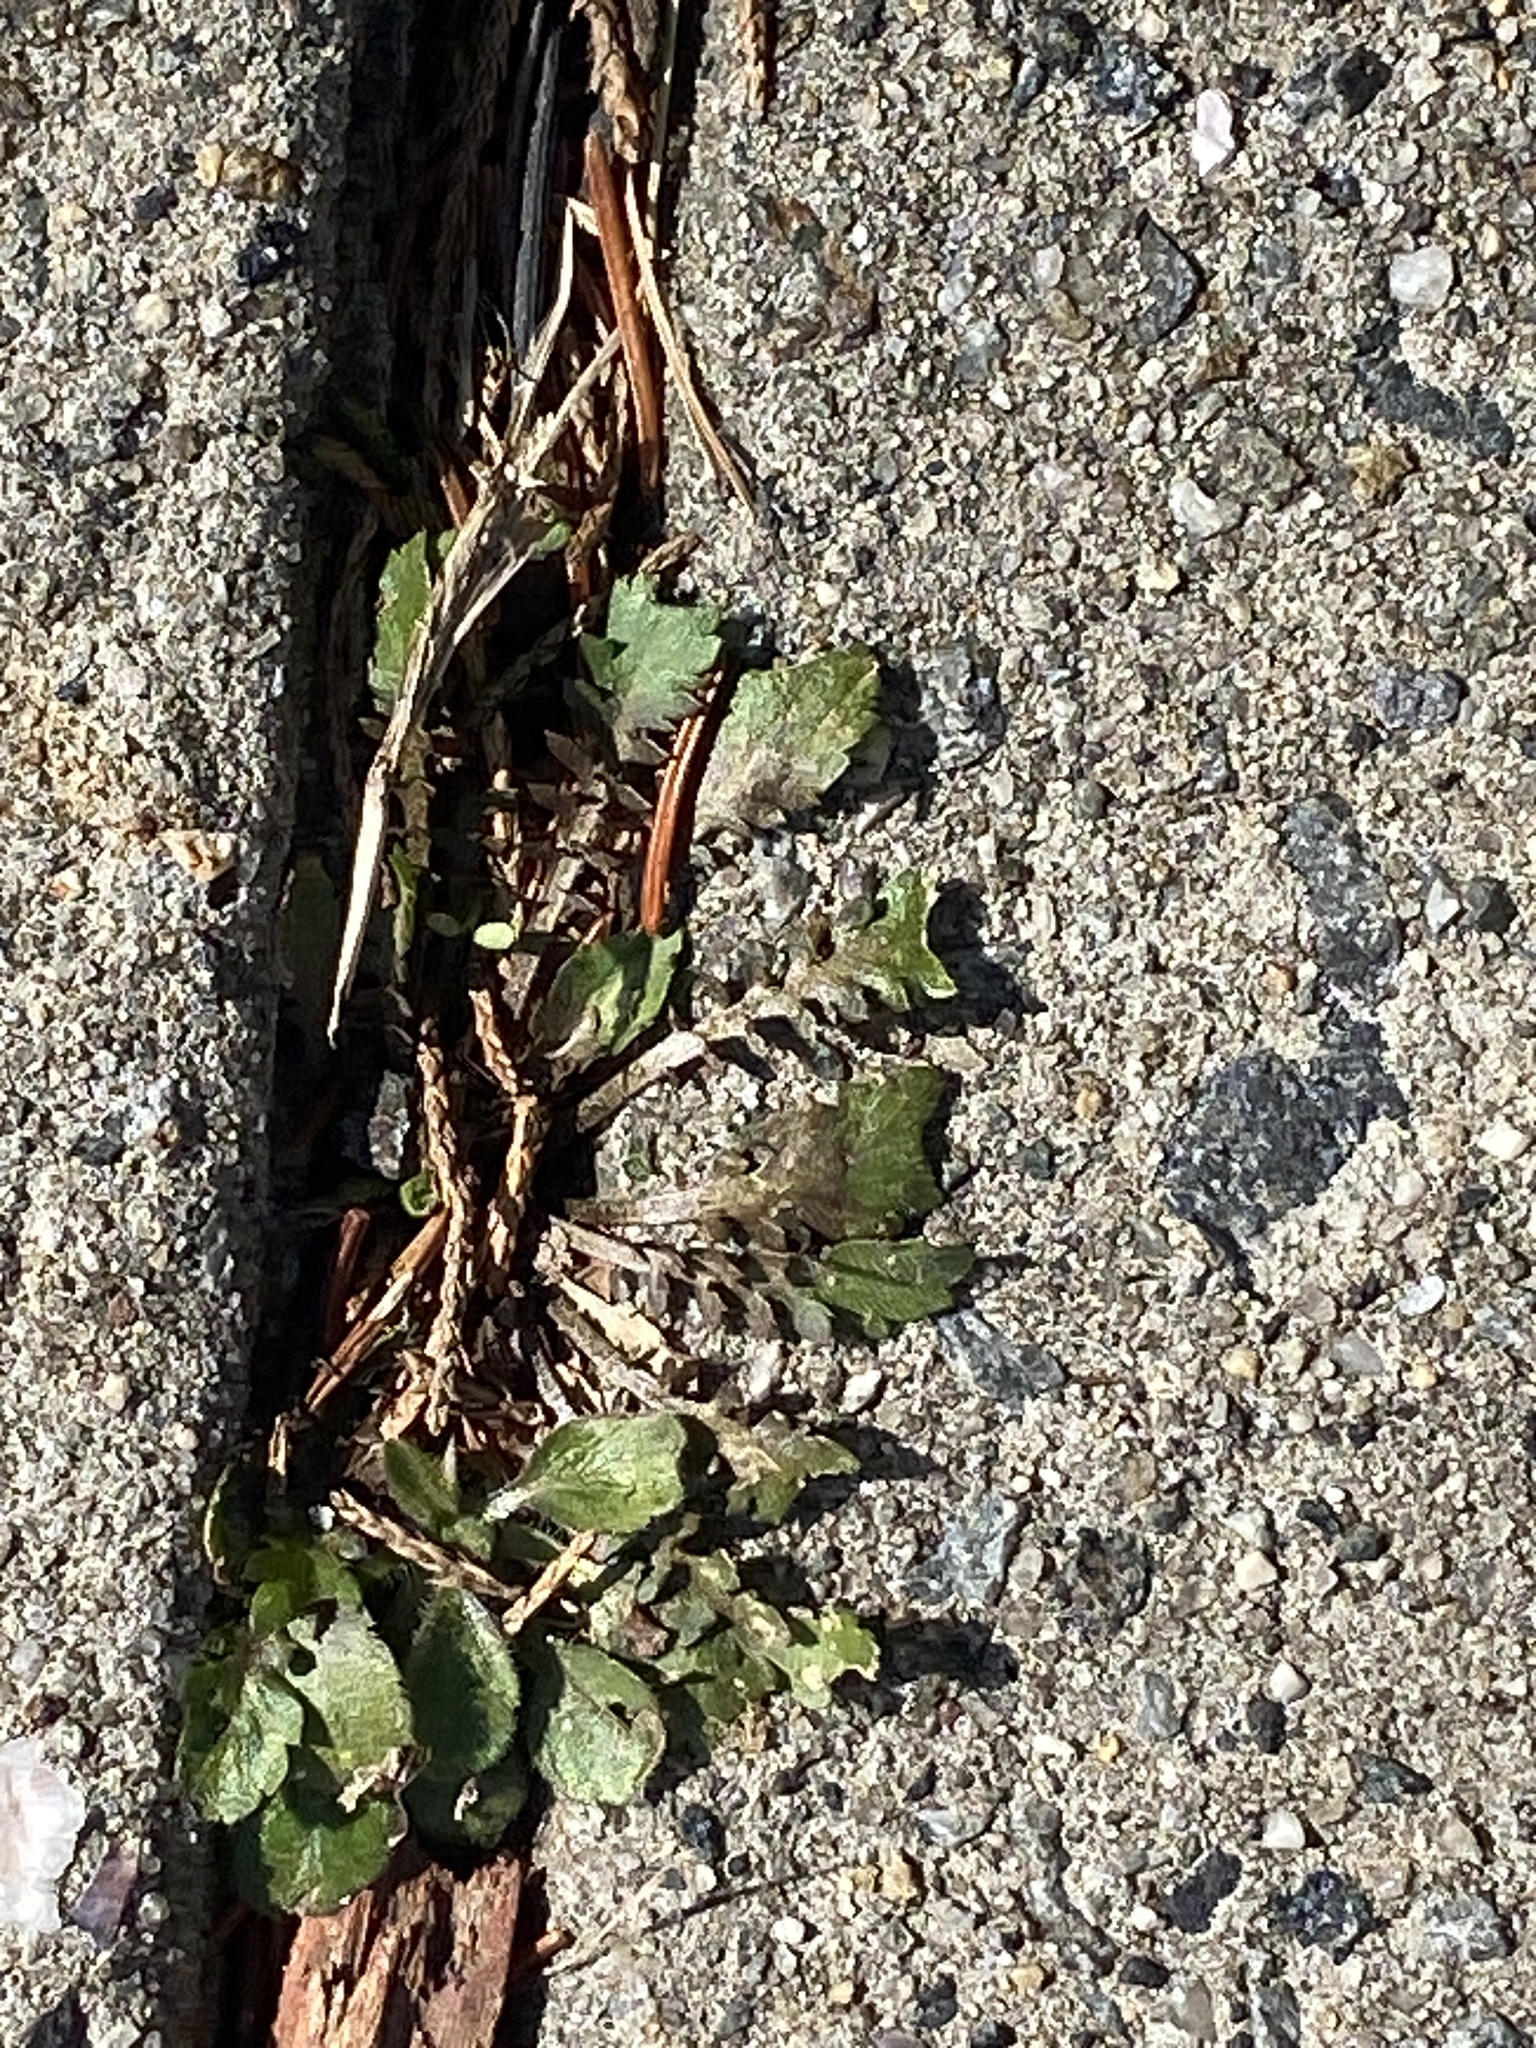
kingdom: Plantae
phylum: Tracheophyta
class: Magnoliopsida
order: Brassicales
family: Brassicaceae
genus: Lepidium
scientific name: Lepidium virginicum
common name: Least pepperwort
